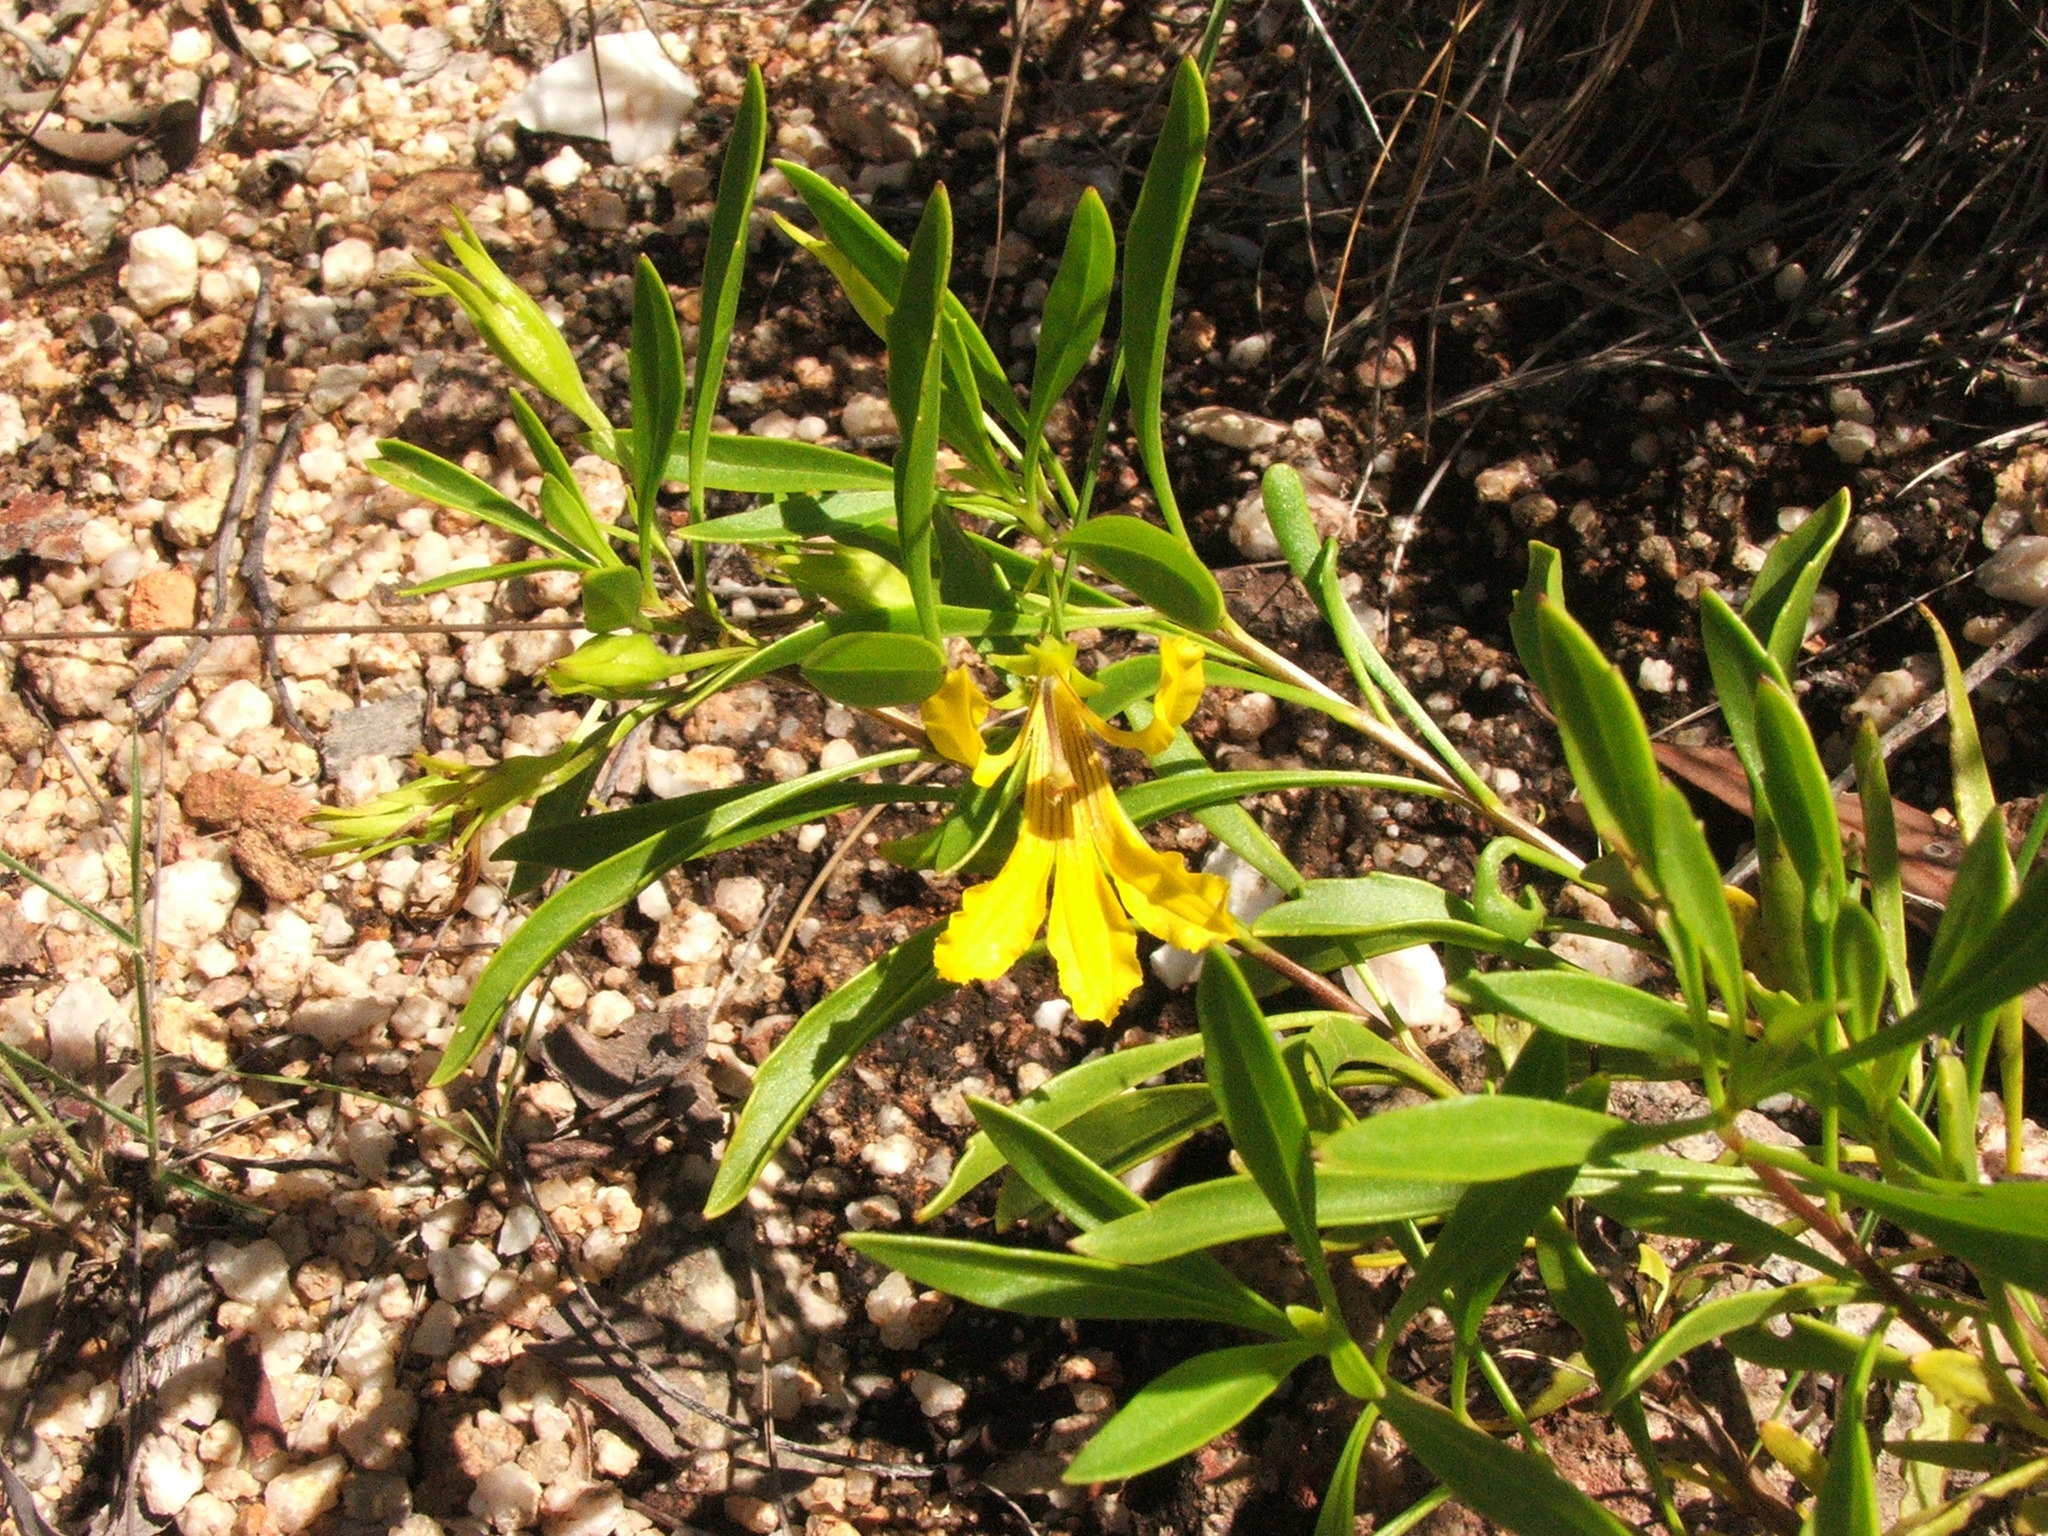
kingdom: Plantae
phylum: Tracheophyta
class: Magnoliopsida
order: Asterales
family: Goodeniaceae
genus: Goodenia
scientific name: Goodenia stirlingii
